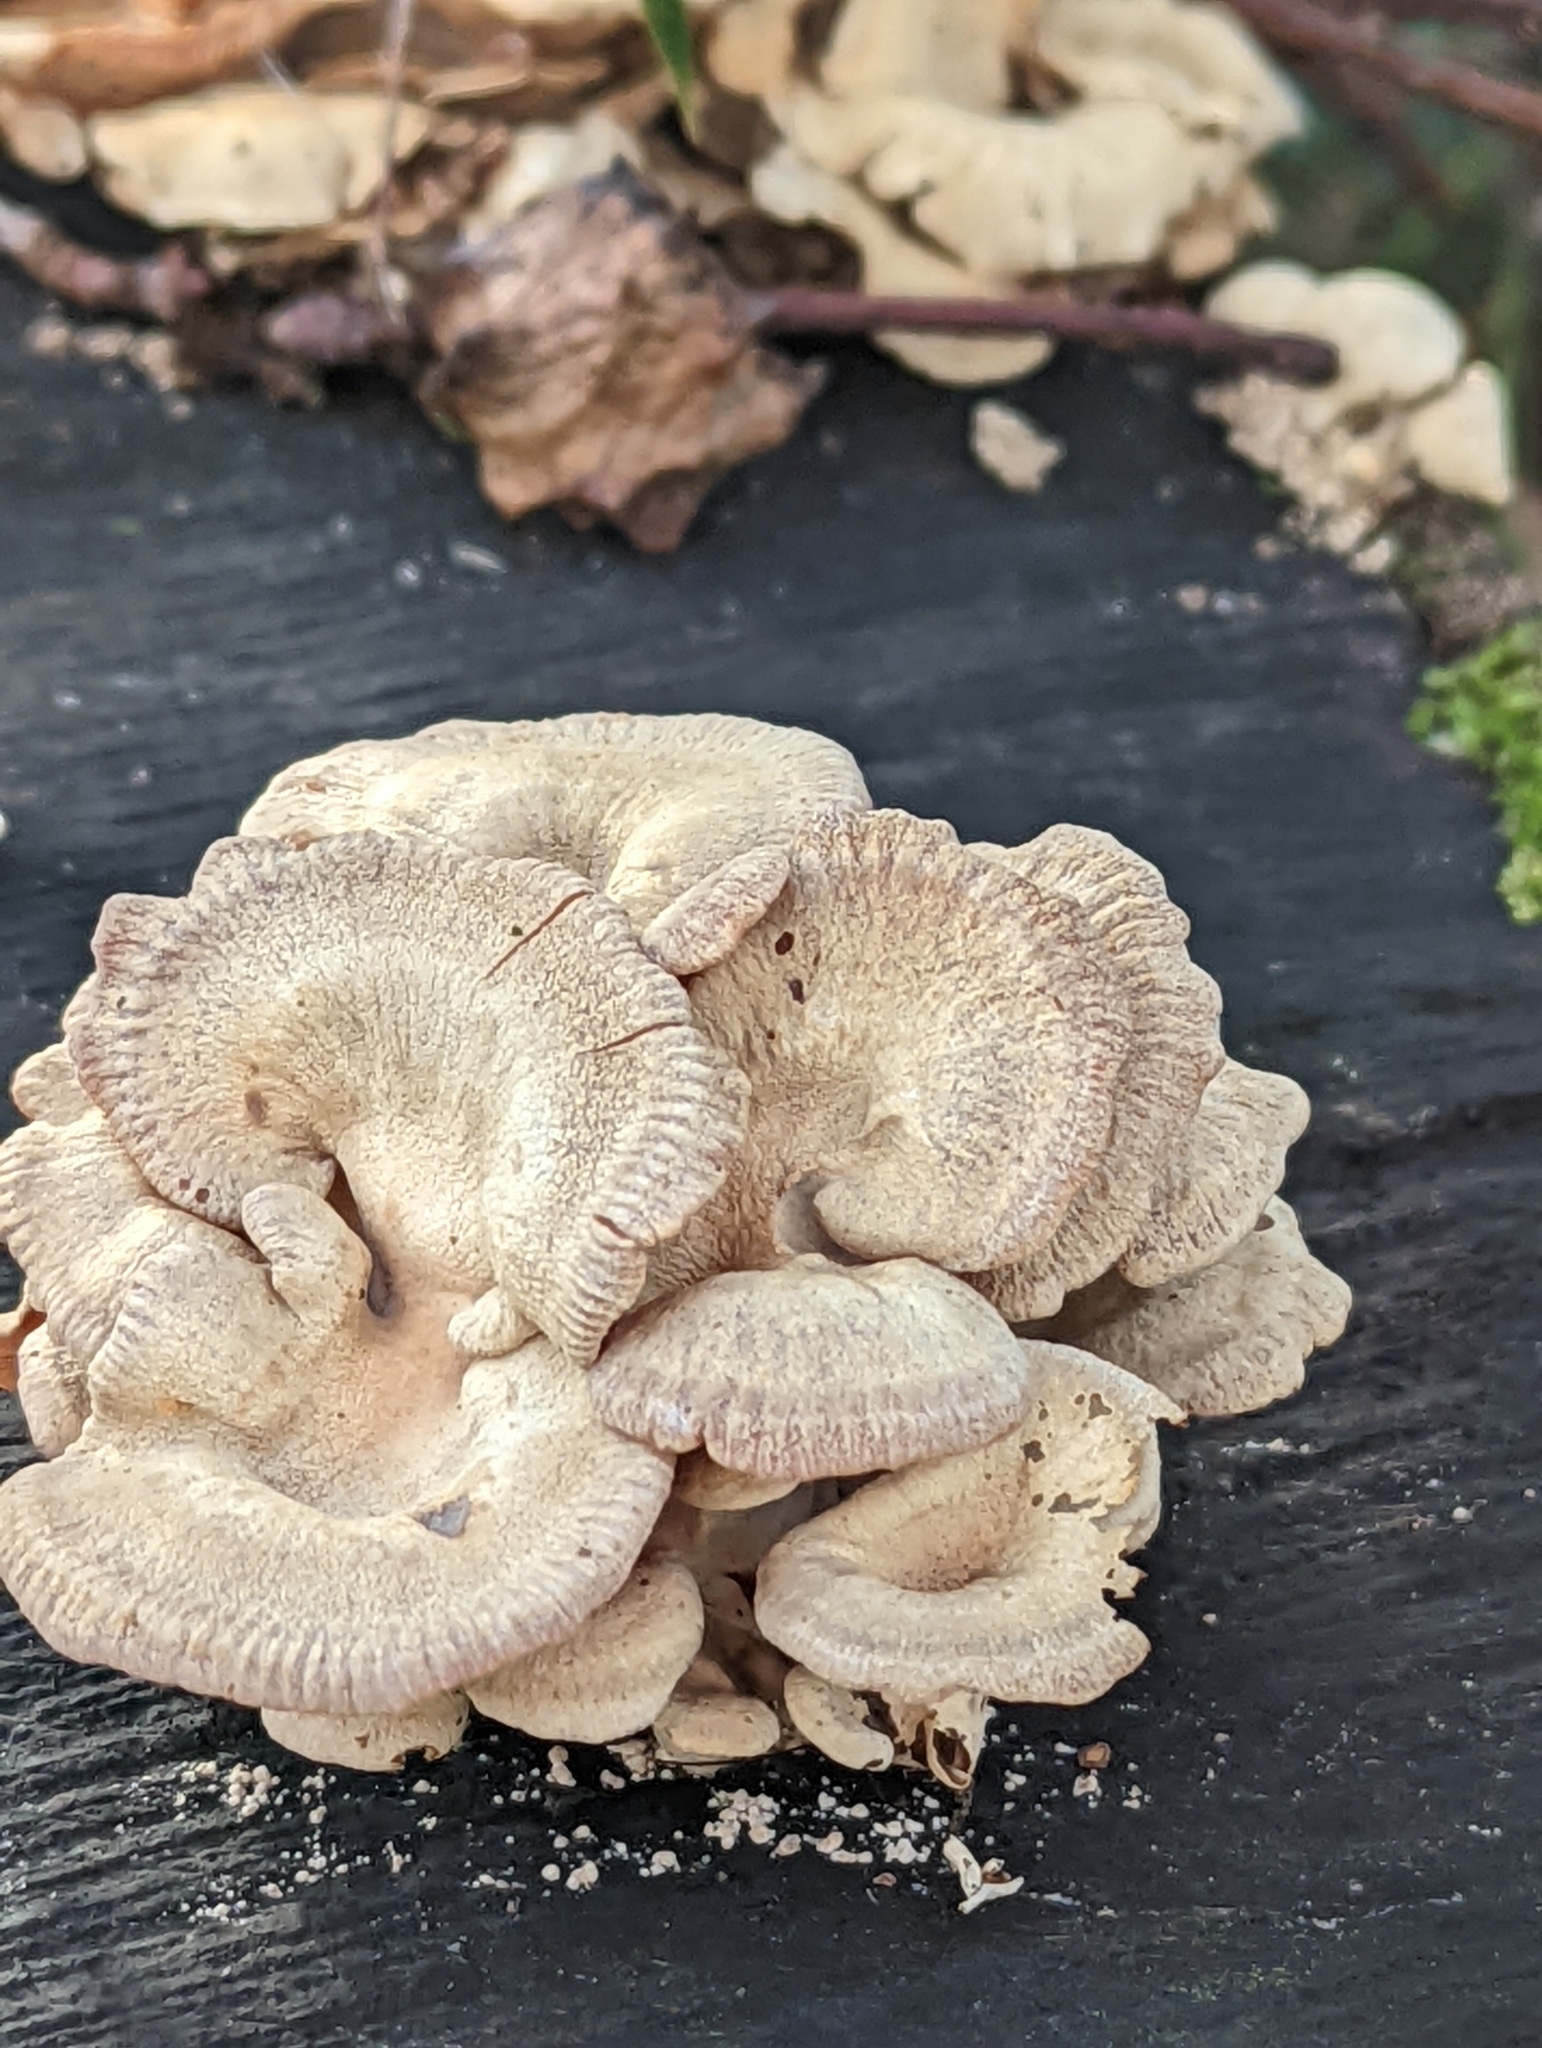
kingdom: Fungi
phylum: Basidiomycota
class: Agaricomycetes
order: Agaricales
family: Mycenaceae
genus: Panellus
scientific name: Panellus stipticus
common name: Bitter oysterling
